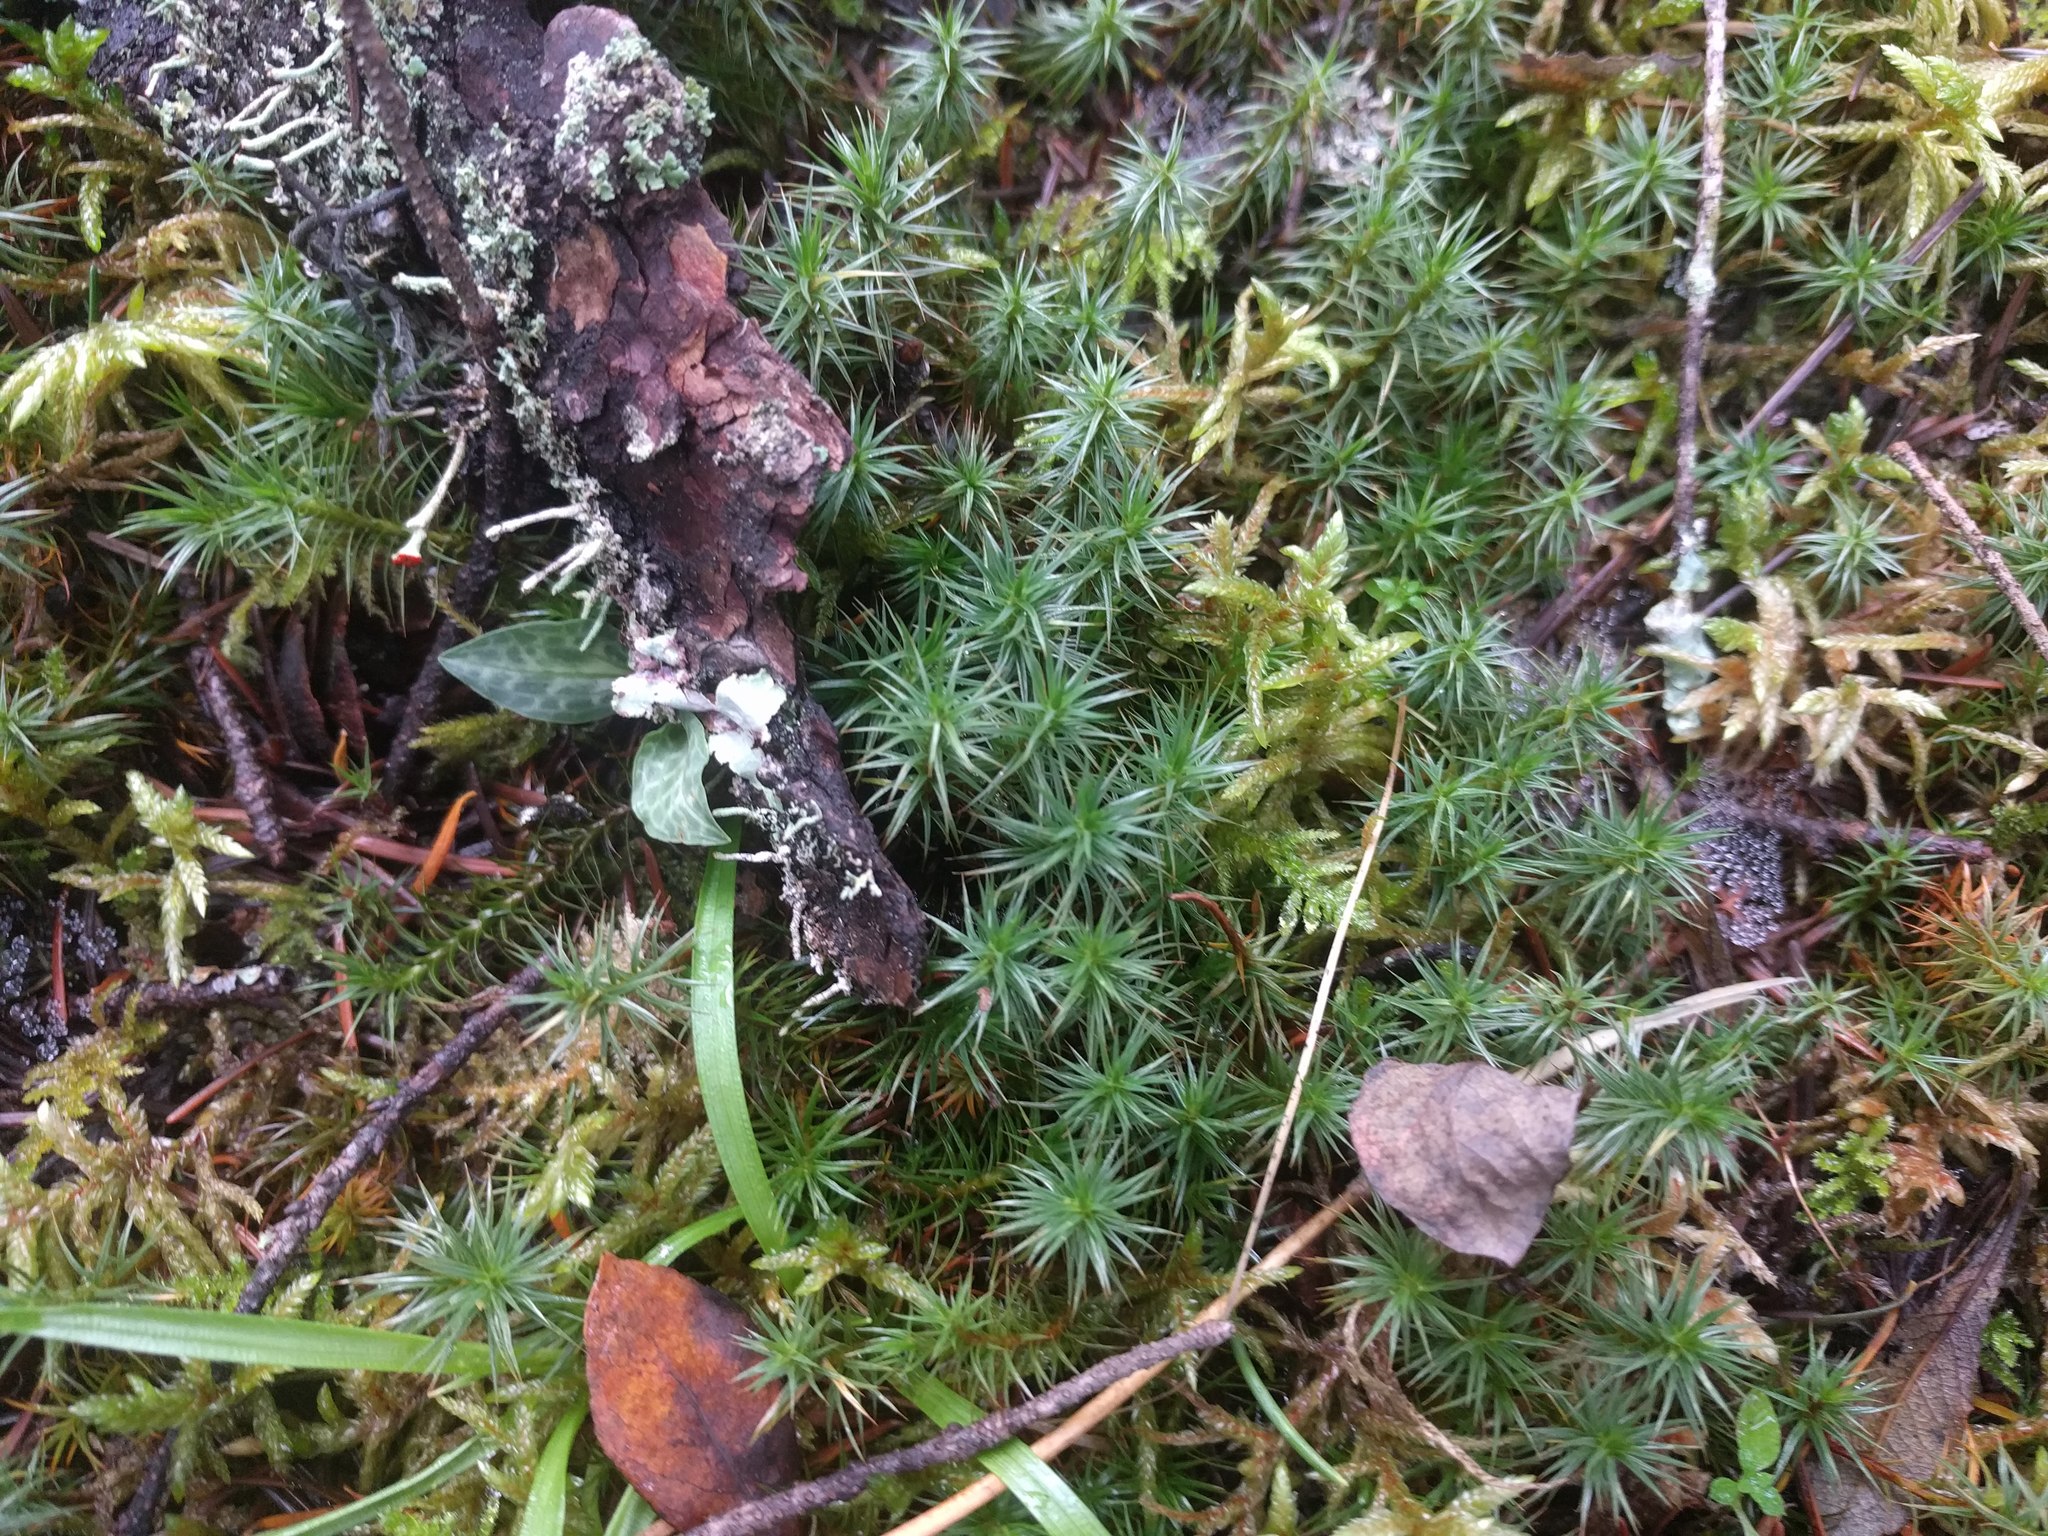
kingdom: Plantae
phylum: Bryophyta
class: Polytrichopsida
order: Polytrichales
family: Polytrichaceae
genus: Polytrichum
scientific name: Polytrichum juniperinum
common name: Juniper haircap moss
